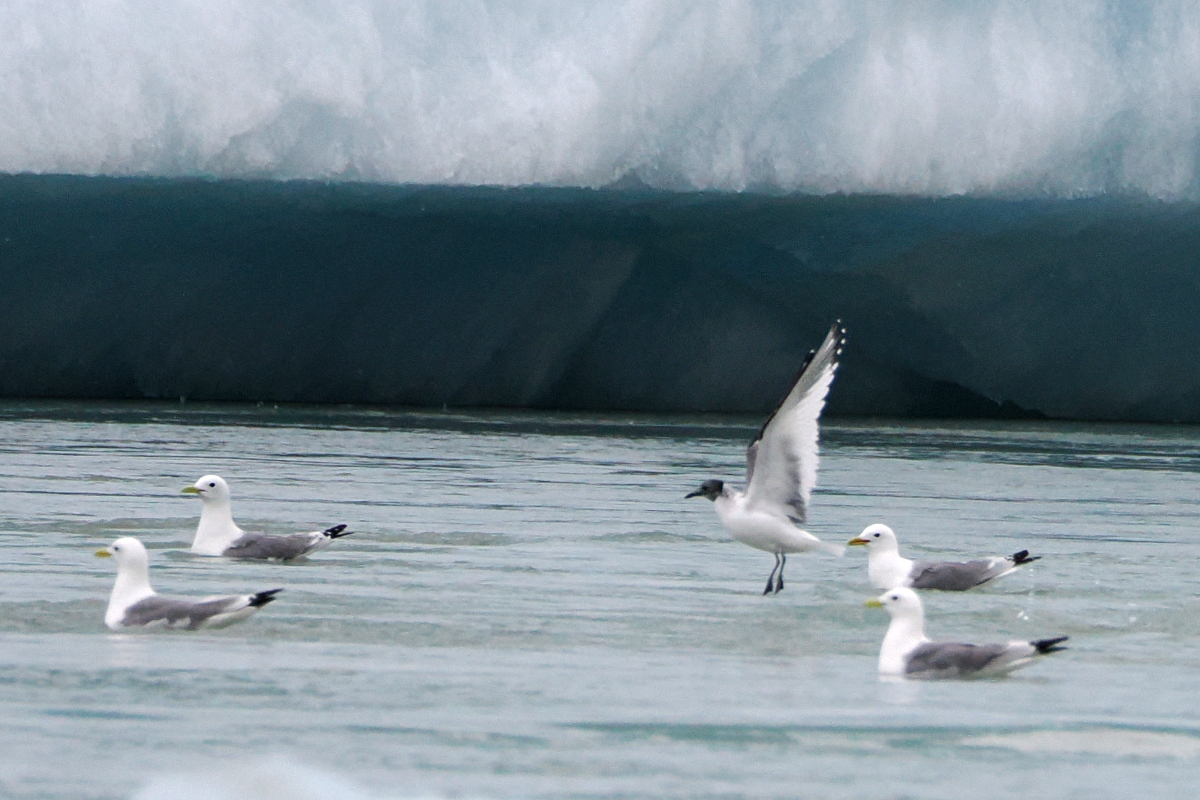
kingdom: Animalia
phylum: Chordata
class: Aves
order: Charadriiformes
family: Laridae
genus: Xema
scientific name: Xema sabini
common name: Sabine's gull
